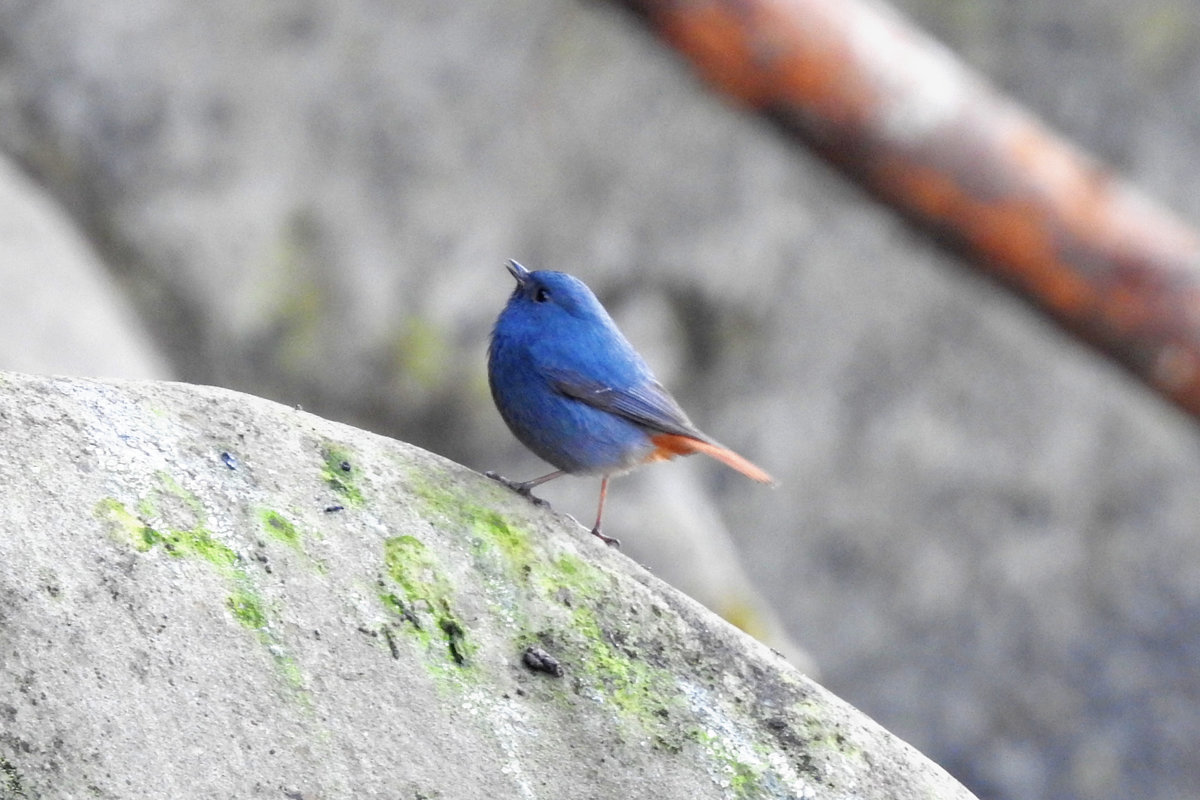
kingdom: Animalia
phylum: Chordata
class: Aves
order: Passeriformes
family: Muscicapidae
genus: Phoenicurus
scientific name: Phoenicurus fuliginosus
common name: Plumbeous water redstart
